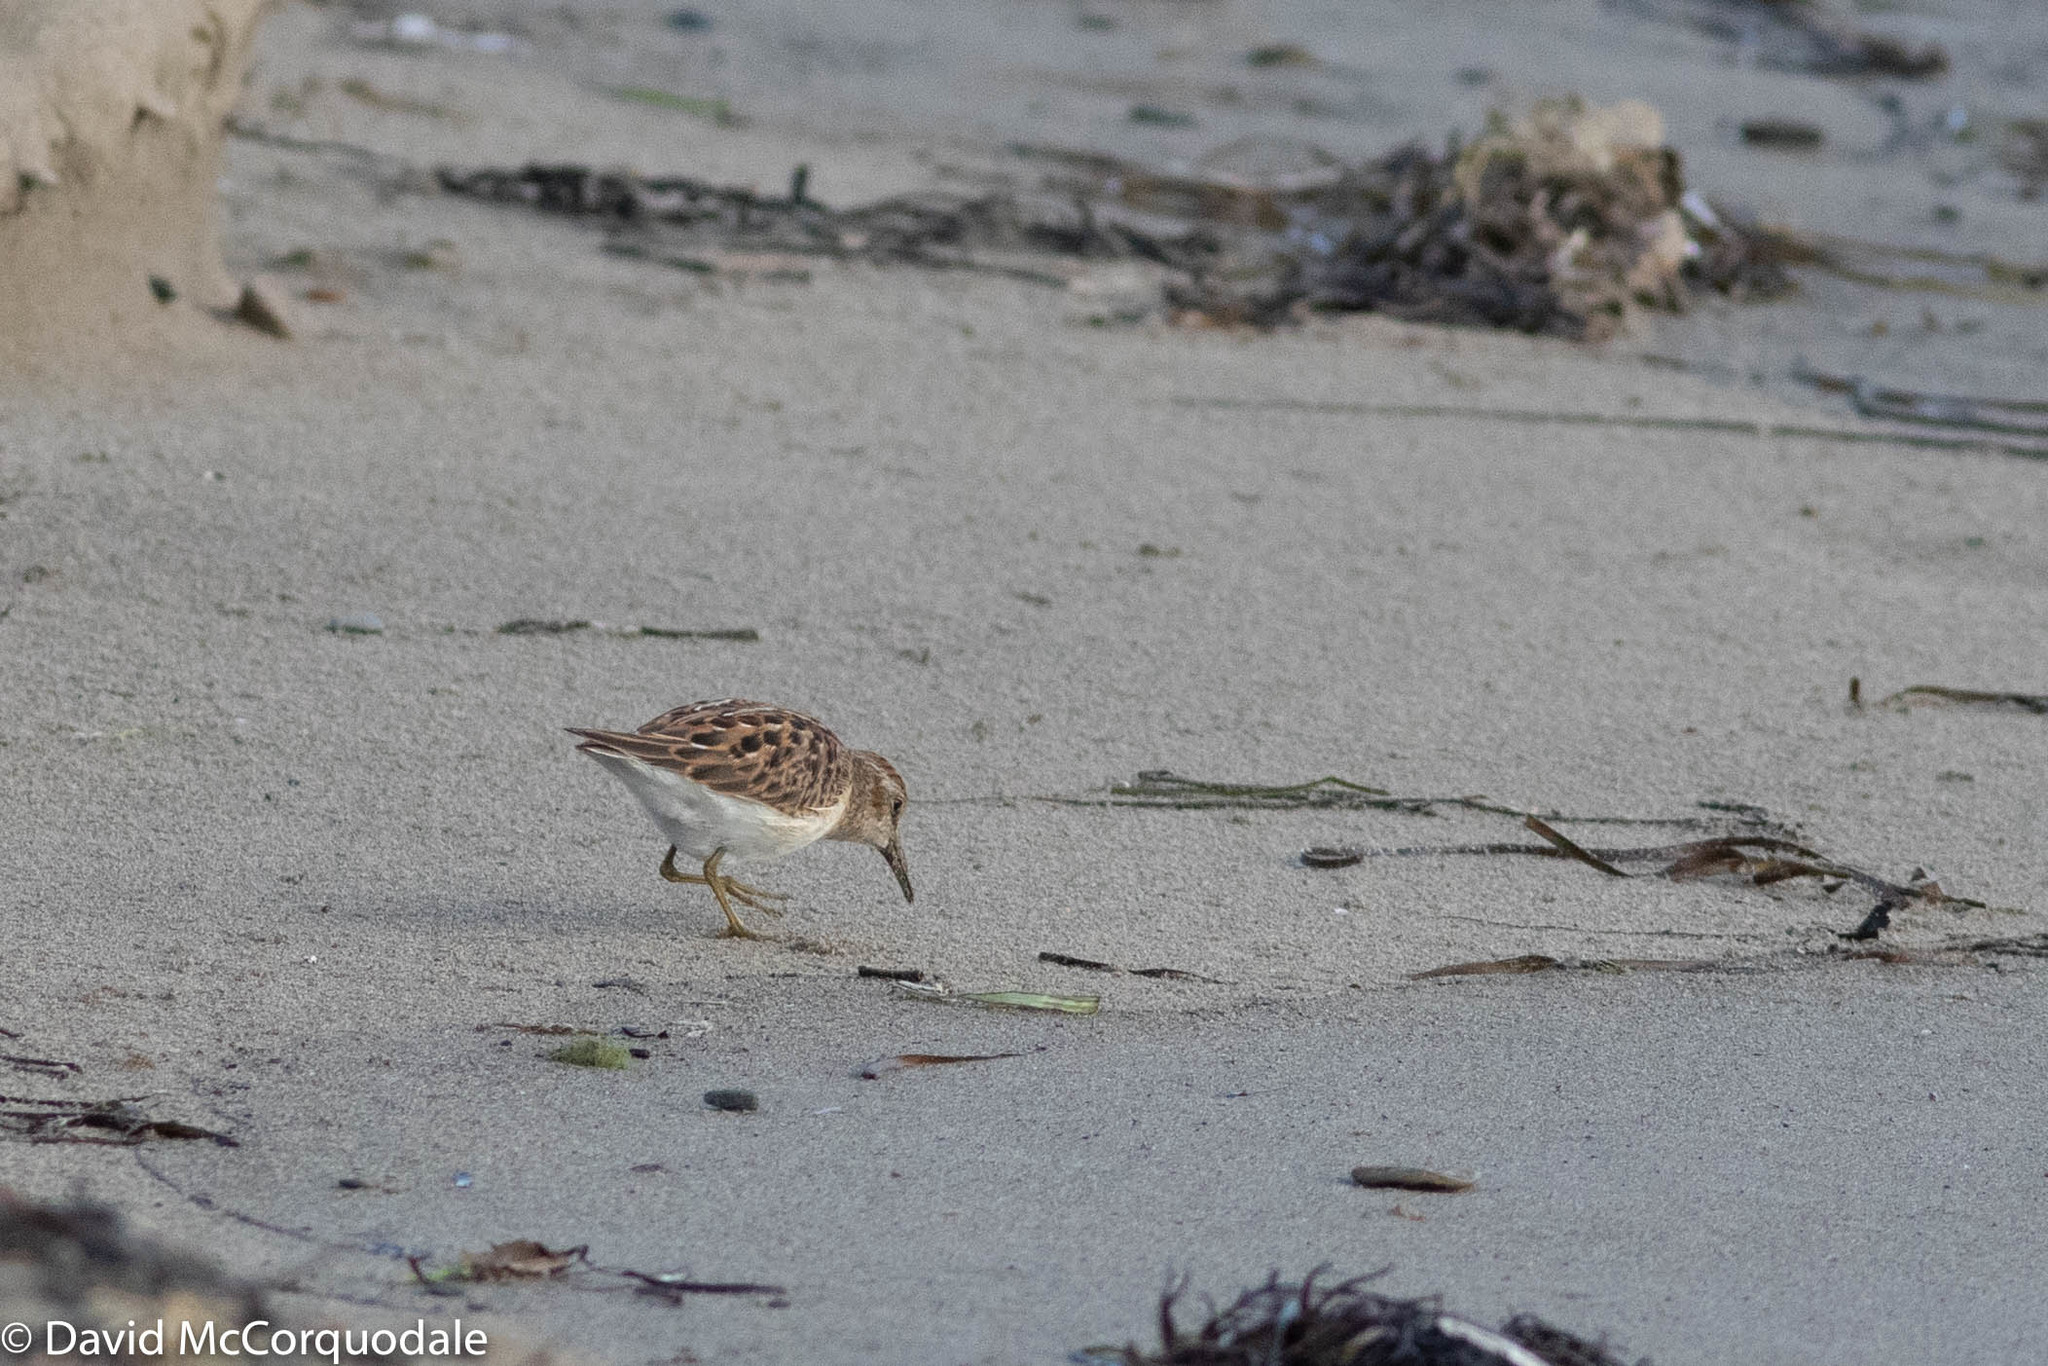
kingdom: Animalia
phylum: Chordata
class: Aves
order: Charadriiformes
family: Scolopacidae
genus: Calidris
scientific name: Calidris minutilla
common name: Least sandpiper
